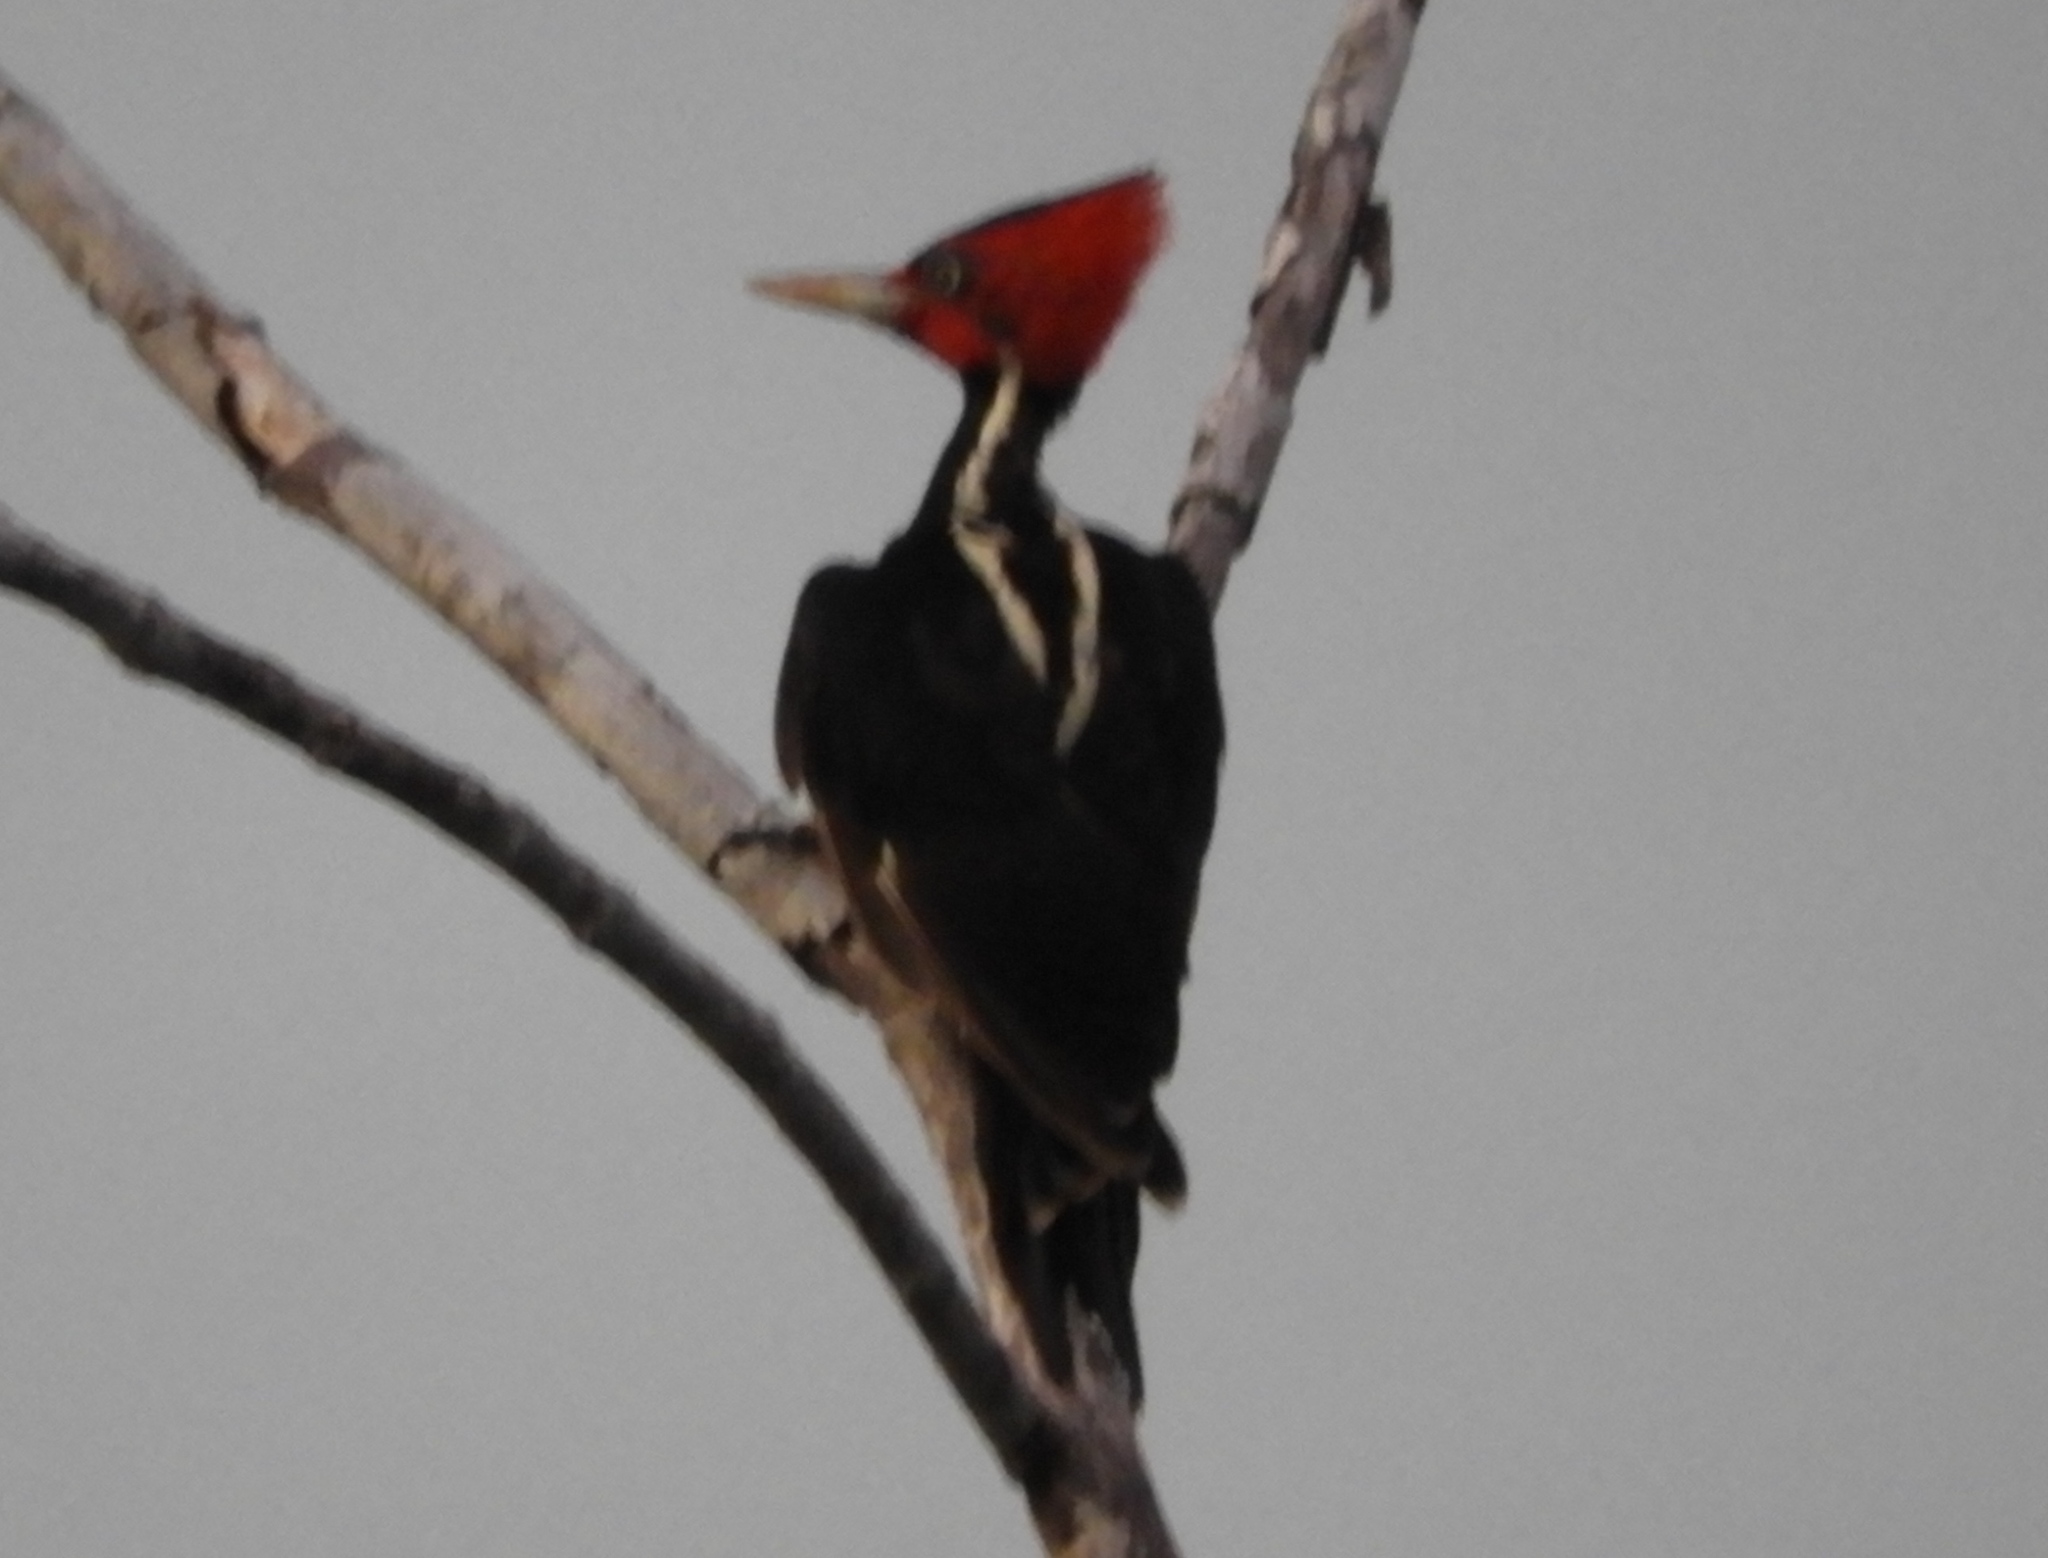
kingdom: Animalia
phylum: Chordata
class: Aves
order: Piciformes
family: Picidae
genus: Campephilus
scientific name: Campephilus guatemalensis
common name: Pale-billed woodpecker
